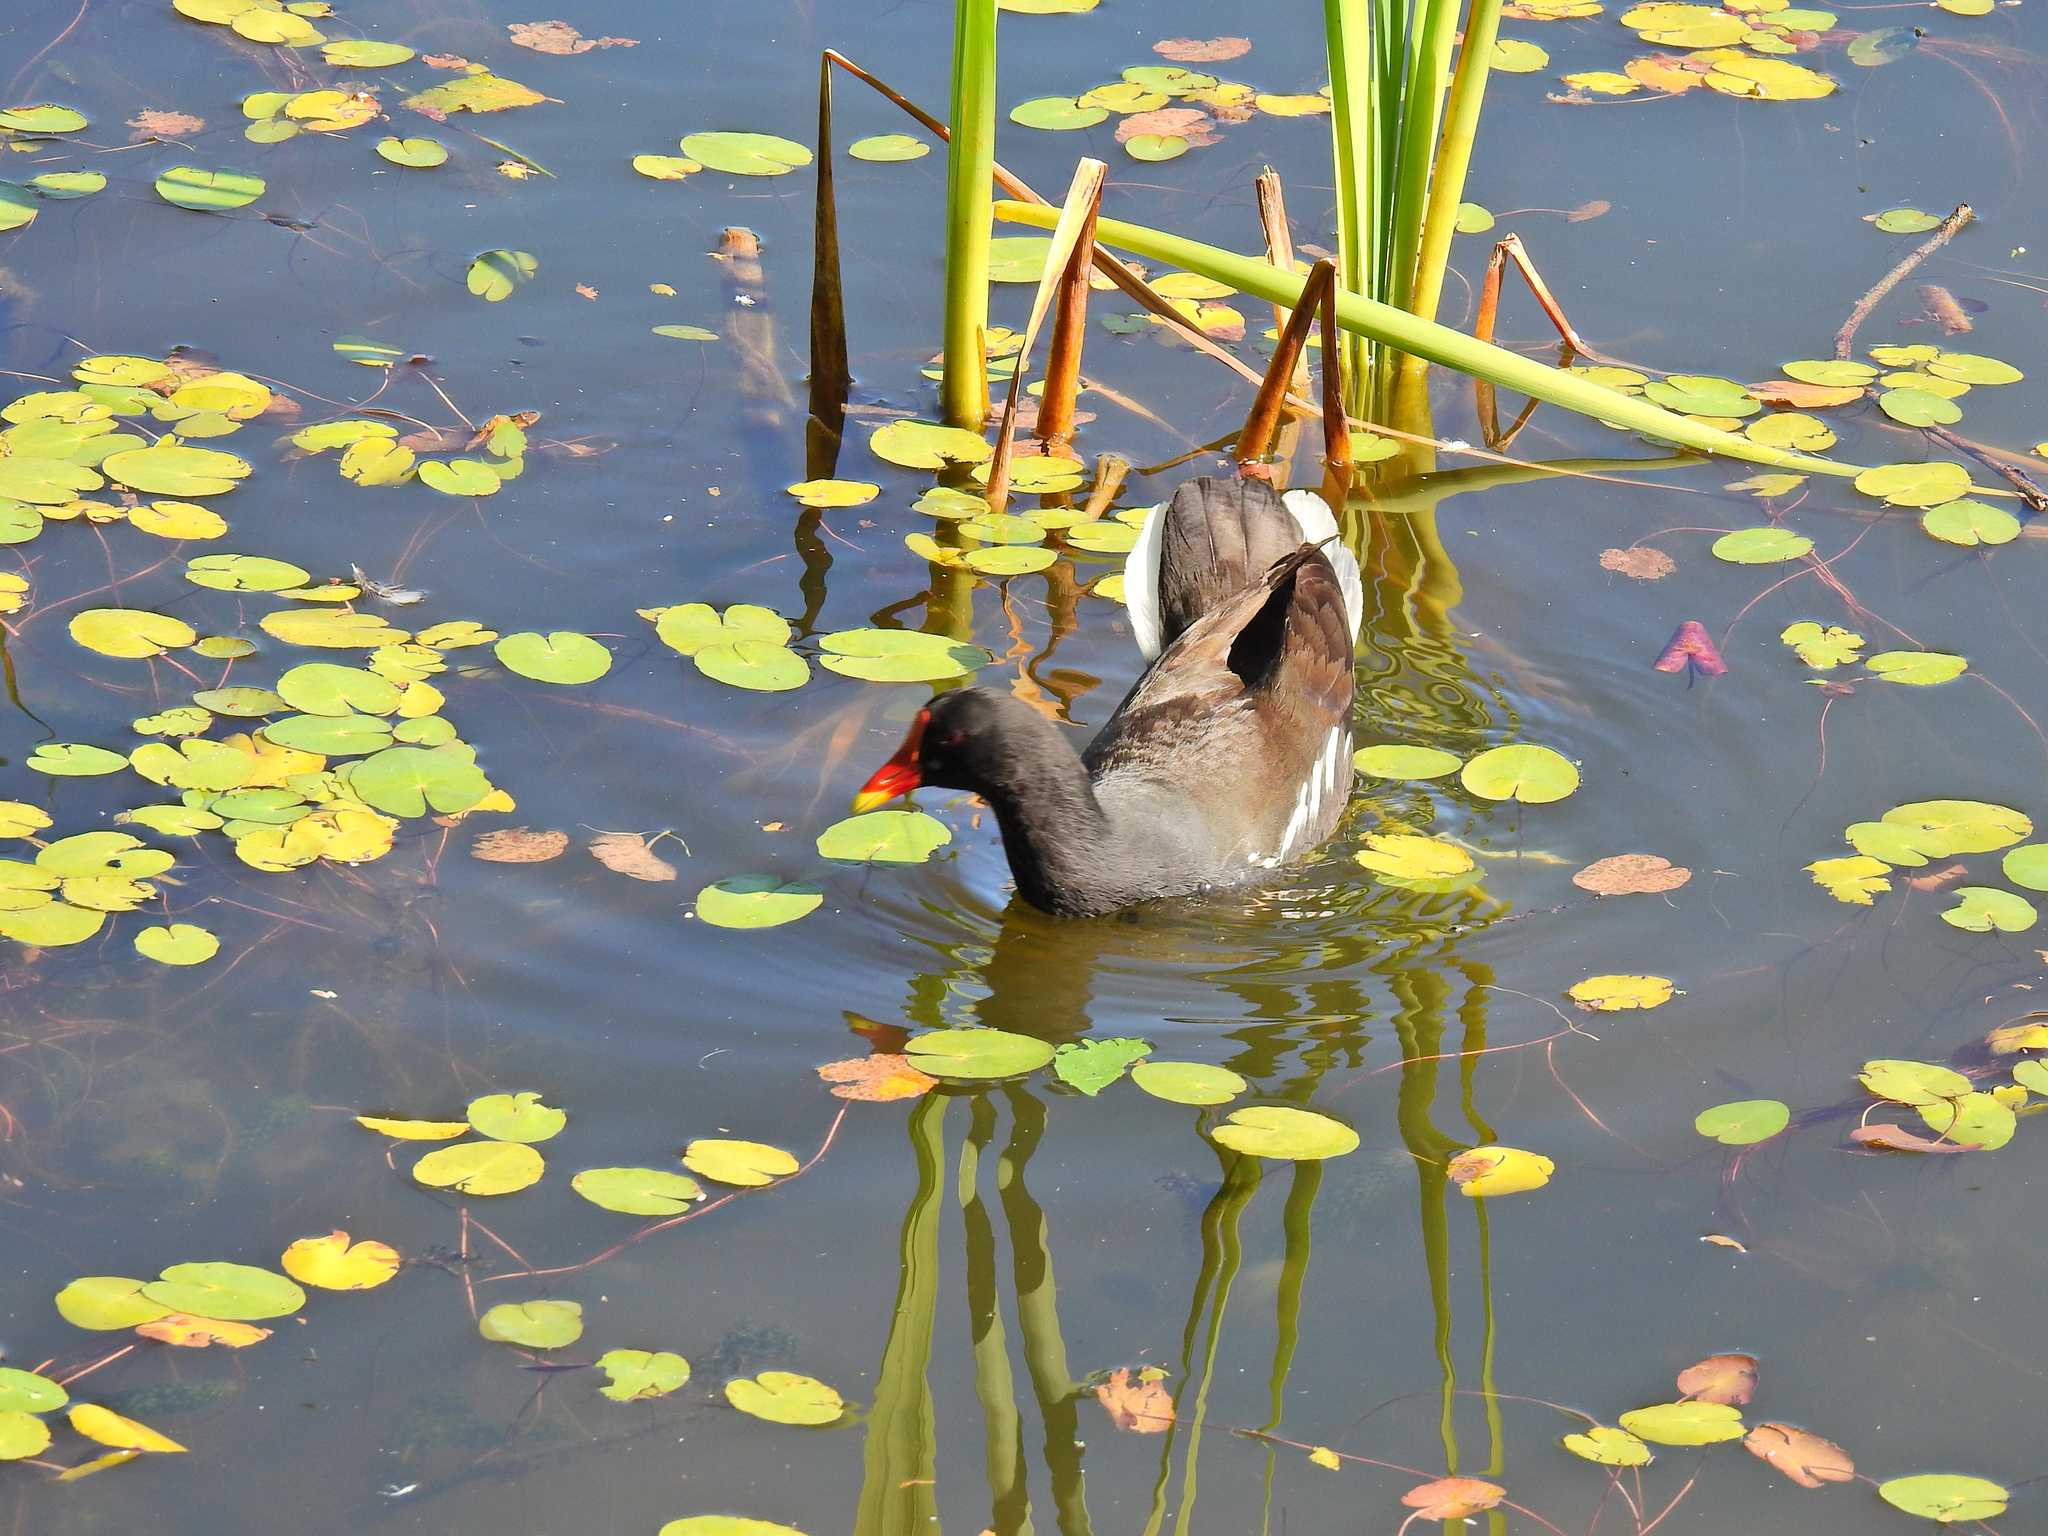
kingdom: Animalia
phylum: Chordata
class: Aves
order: Gruiformes
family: Rallidae
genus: Gallinula
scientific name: Gallinula chloropus
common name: Common moorhen
